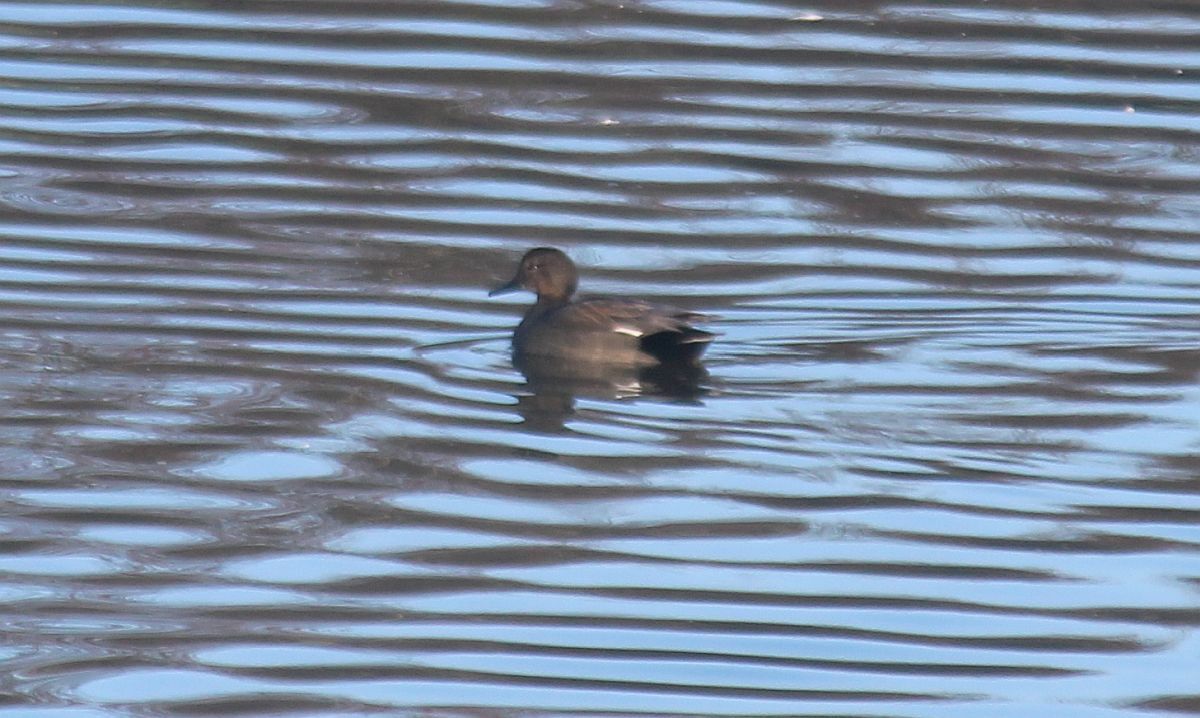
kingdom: Animalia
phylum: Chordata
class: Aves
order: Anseriformes
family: Anatidae
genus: Mareca
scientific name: Mareca strepera
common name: Gadwall
